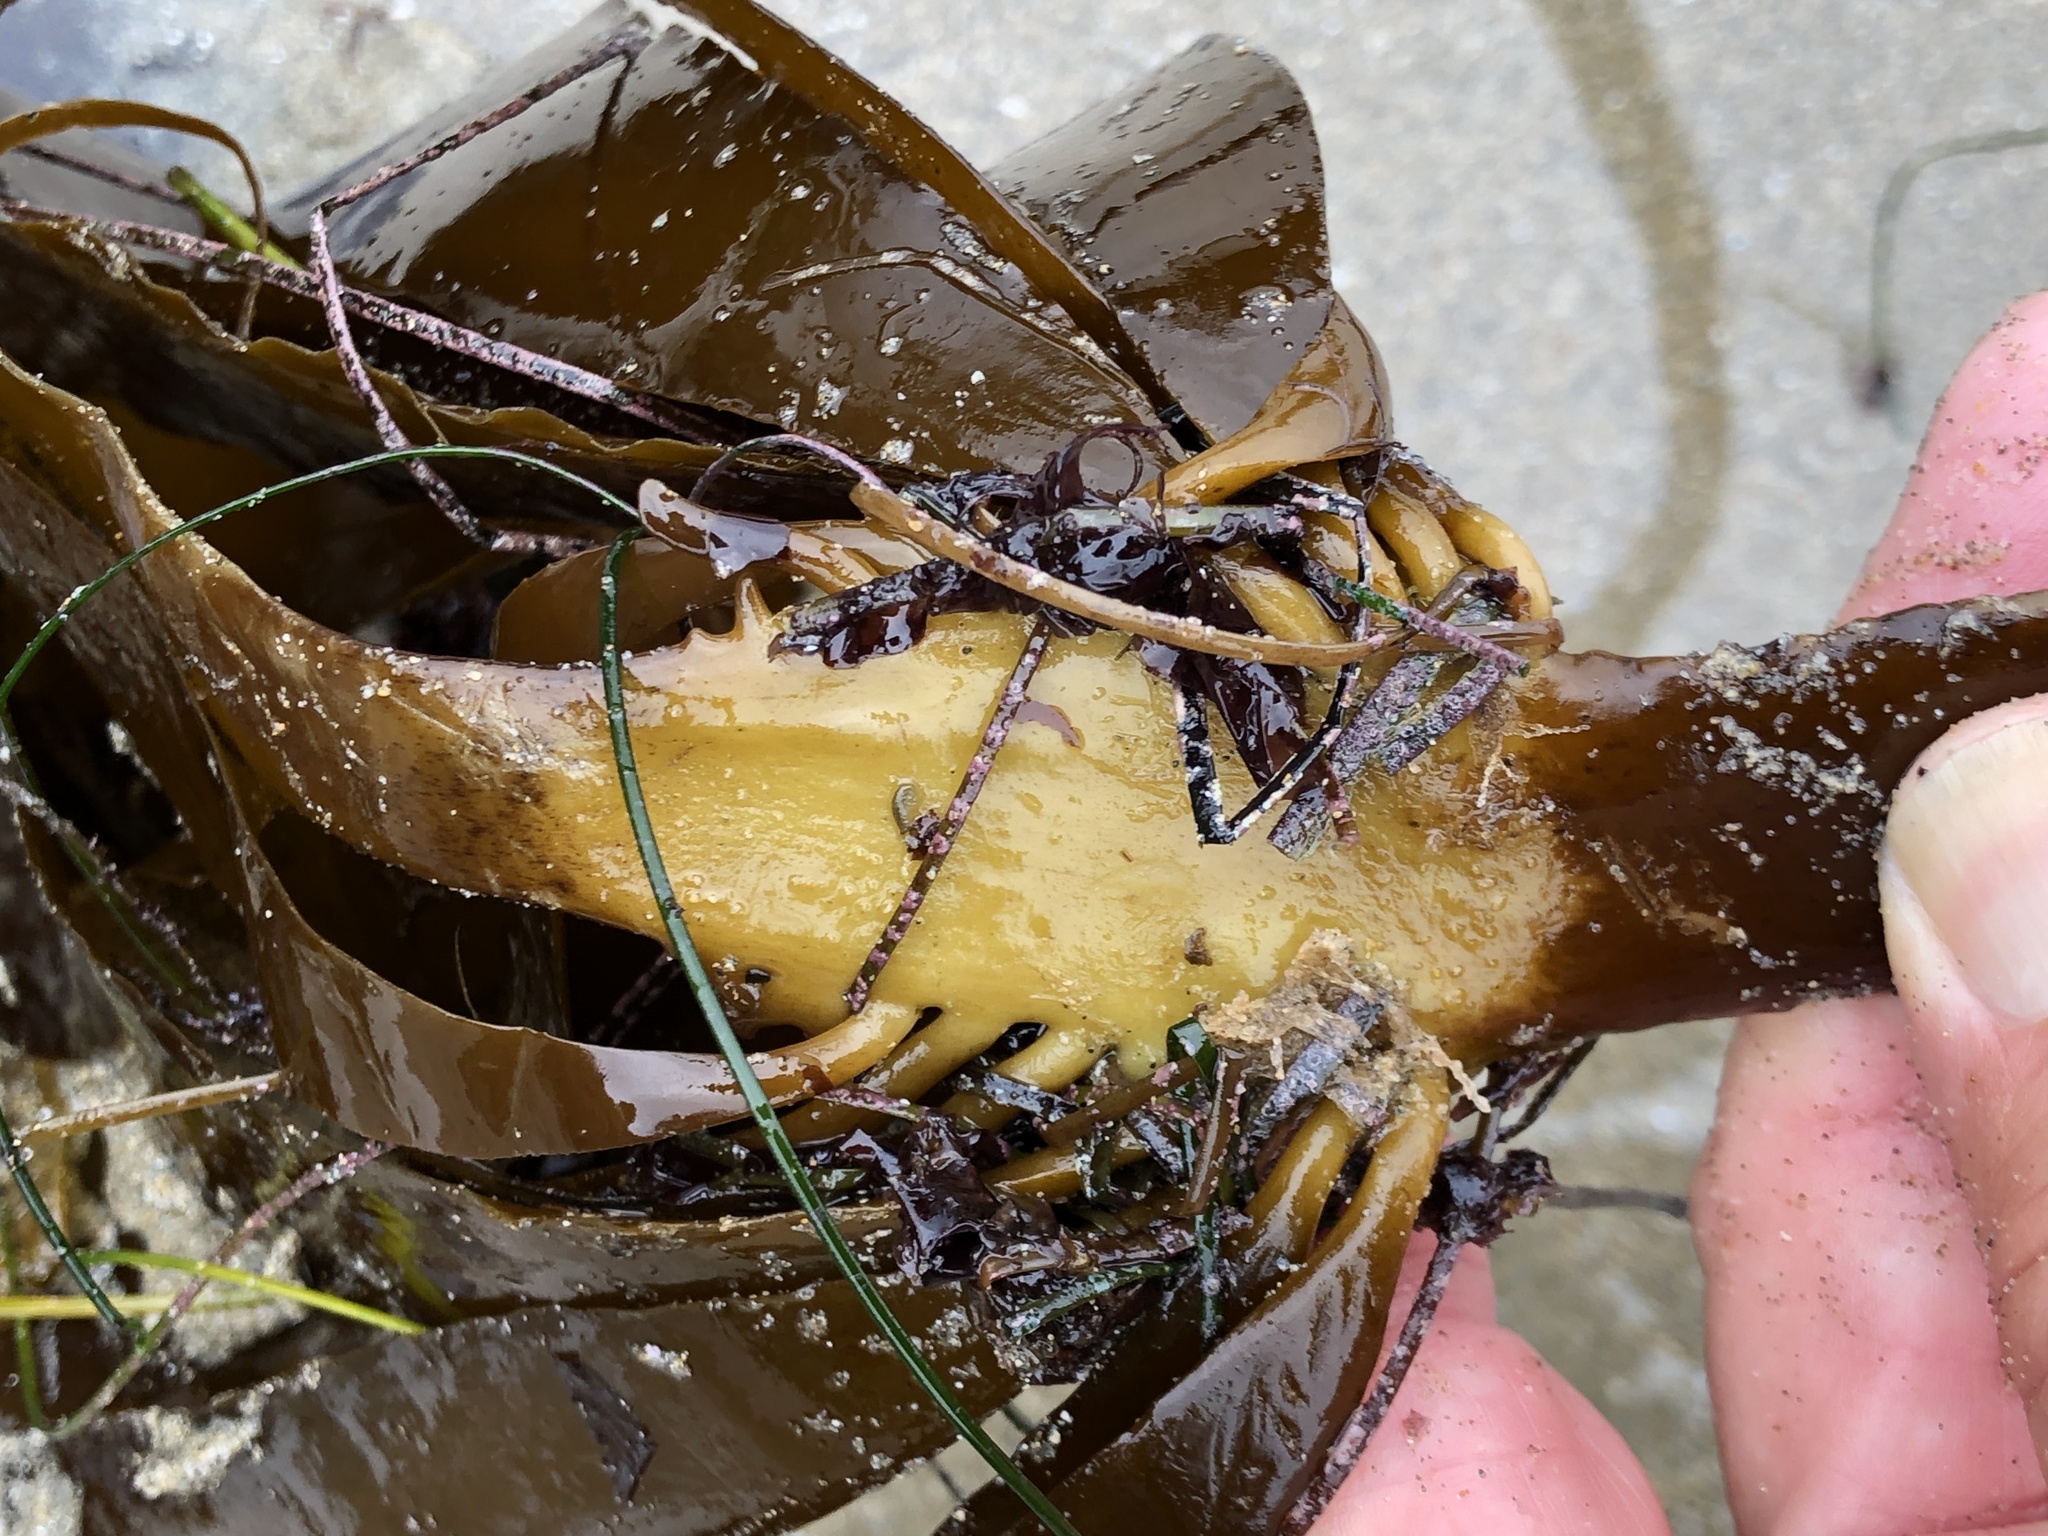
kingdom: Chromista
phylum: Ochrophyta
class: Phaeophyceae
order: Laminariales
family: Alariaceae
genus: Pterygophora
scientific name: Pterygophora californica
